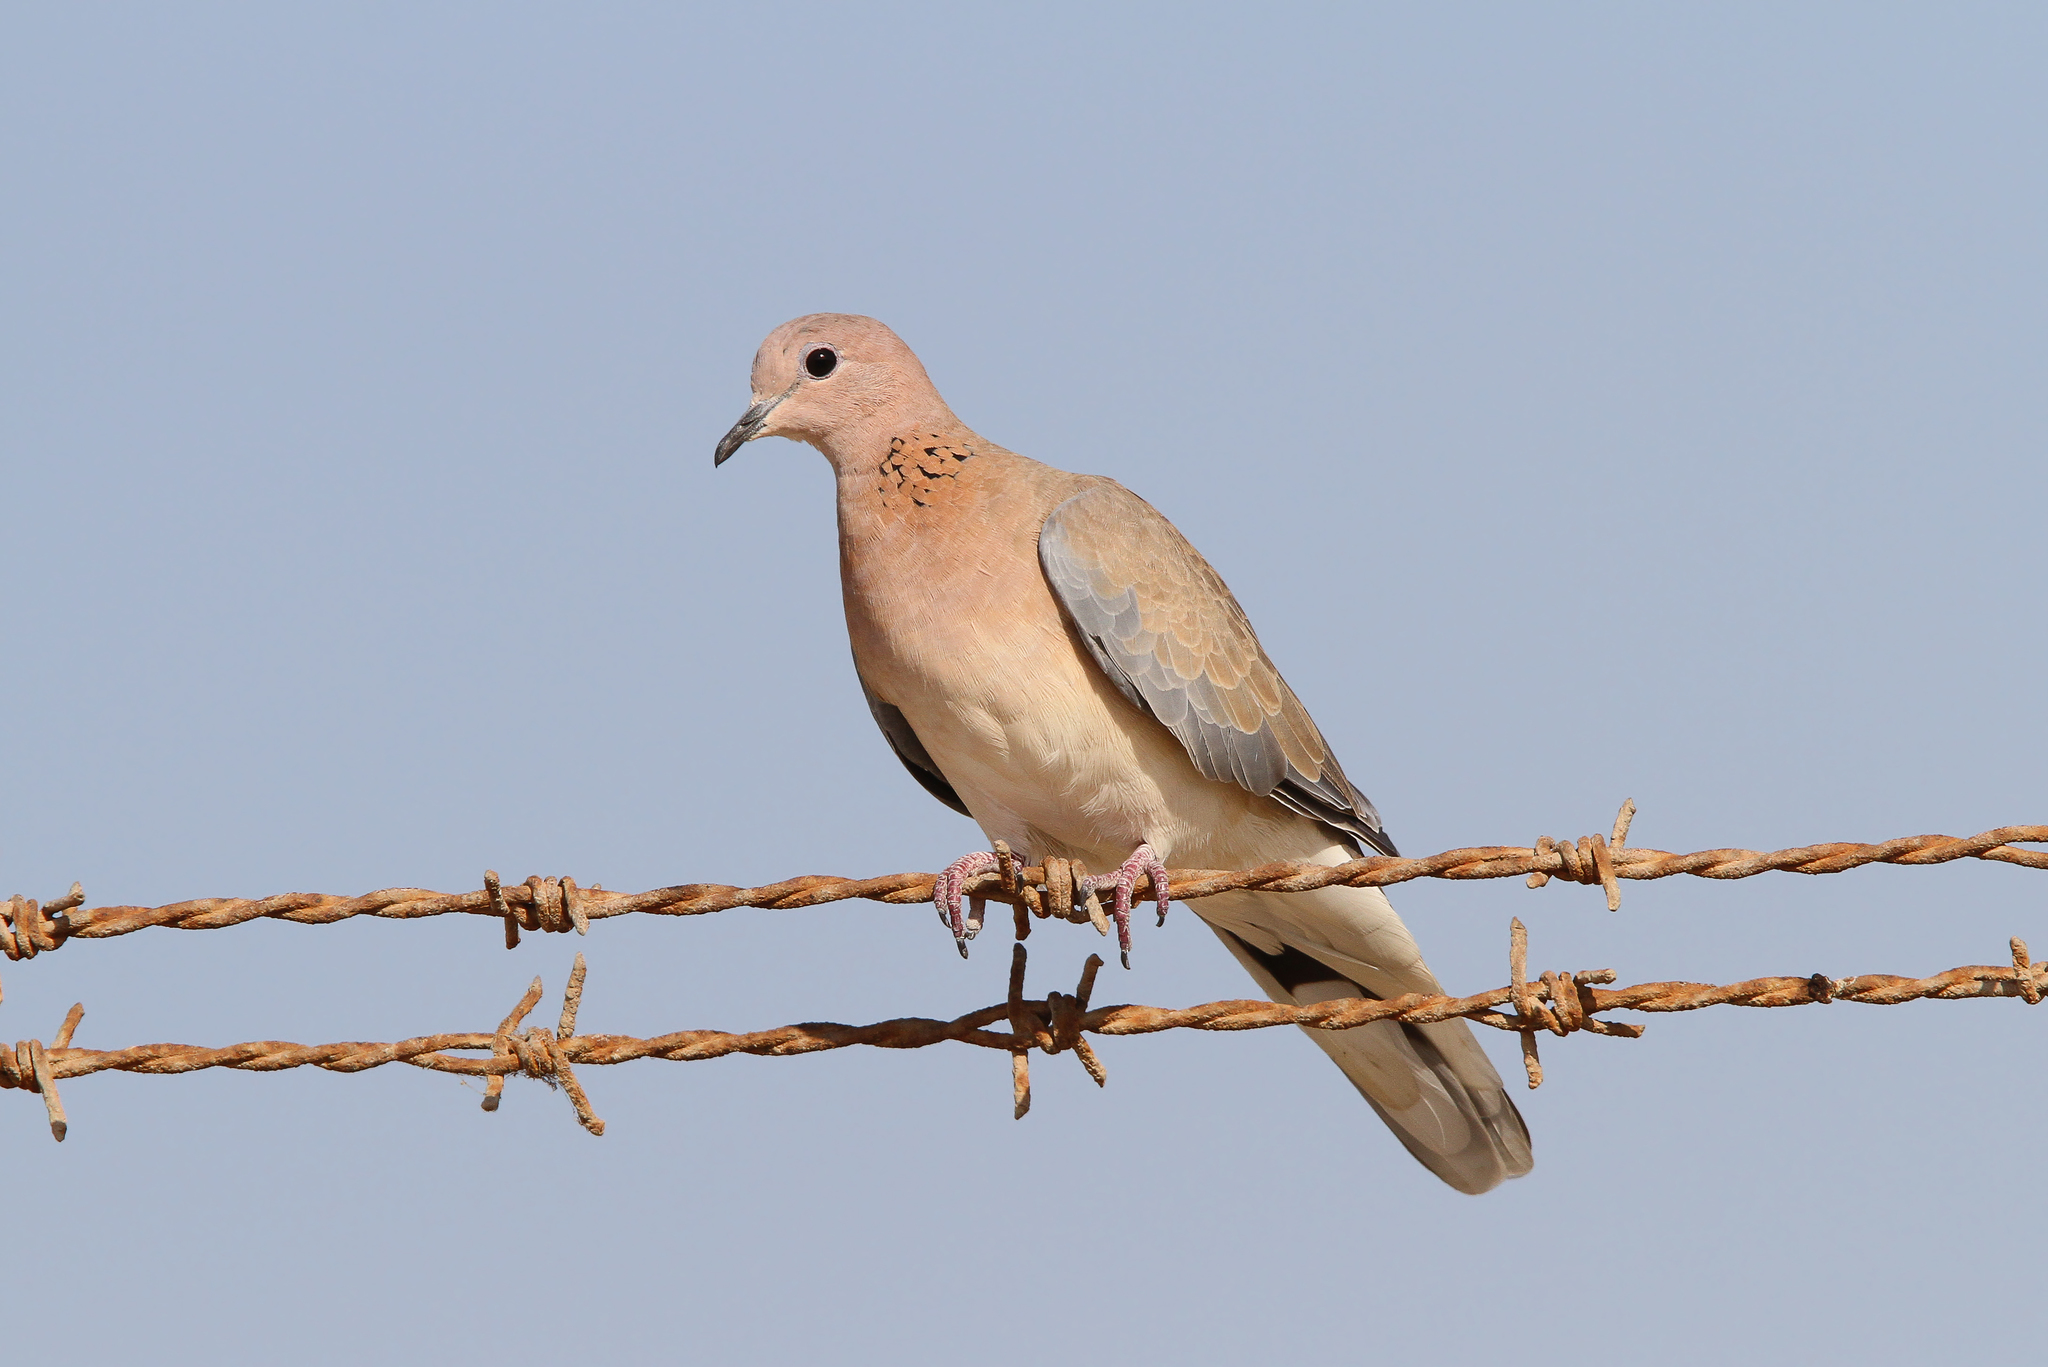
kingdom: Animalia
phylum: Chordata
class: Aves
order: Columbiformes
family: Columbidae
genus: Spilopelia
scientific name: Spilopelia senegalensis
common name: Laughing dove
